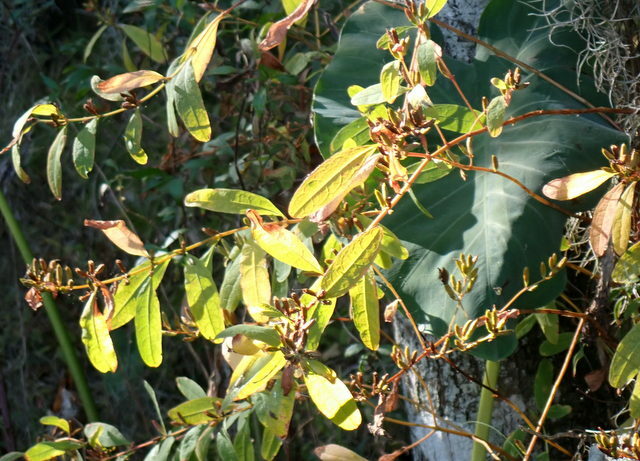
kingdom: Plantae
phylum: Tracheophyta
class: Magnoliopsida
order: Malpighiales
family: Hypericaceae
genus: Triadenum
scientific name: Triadenum walteri
